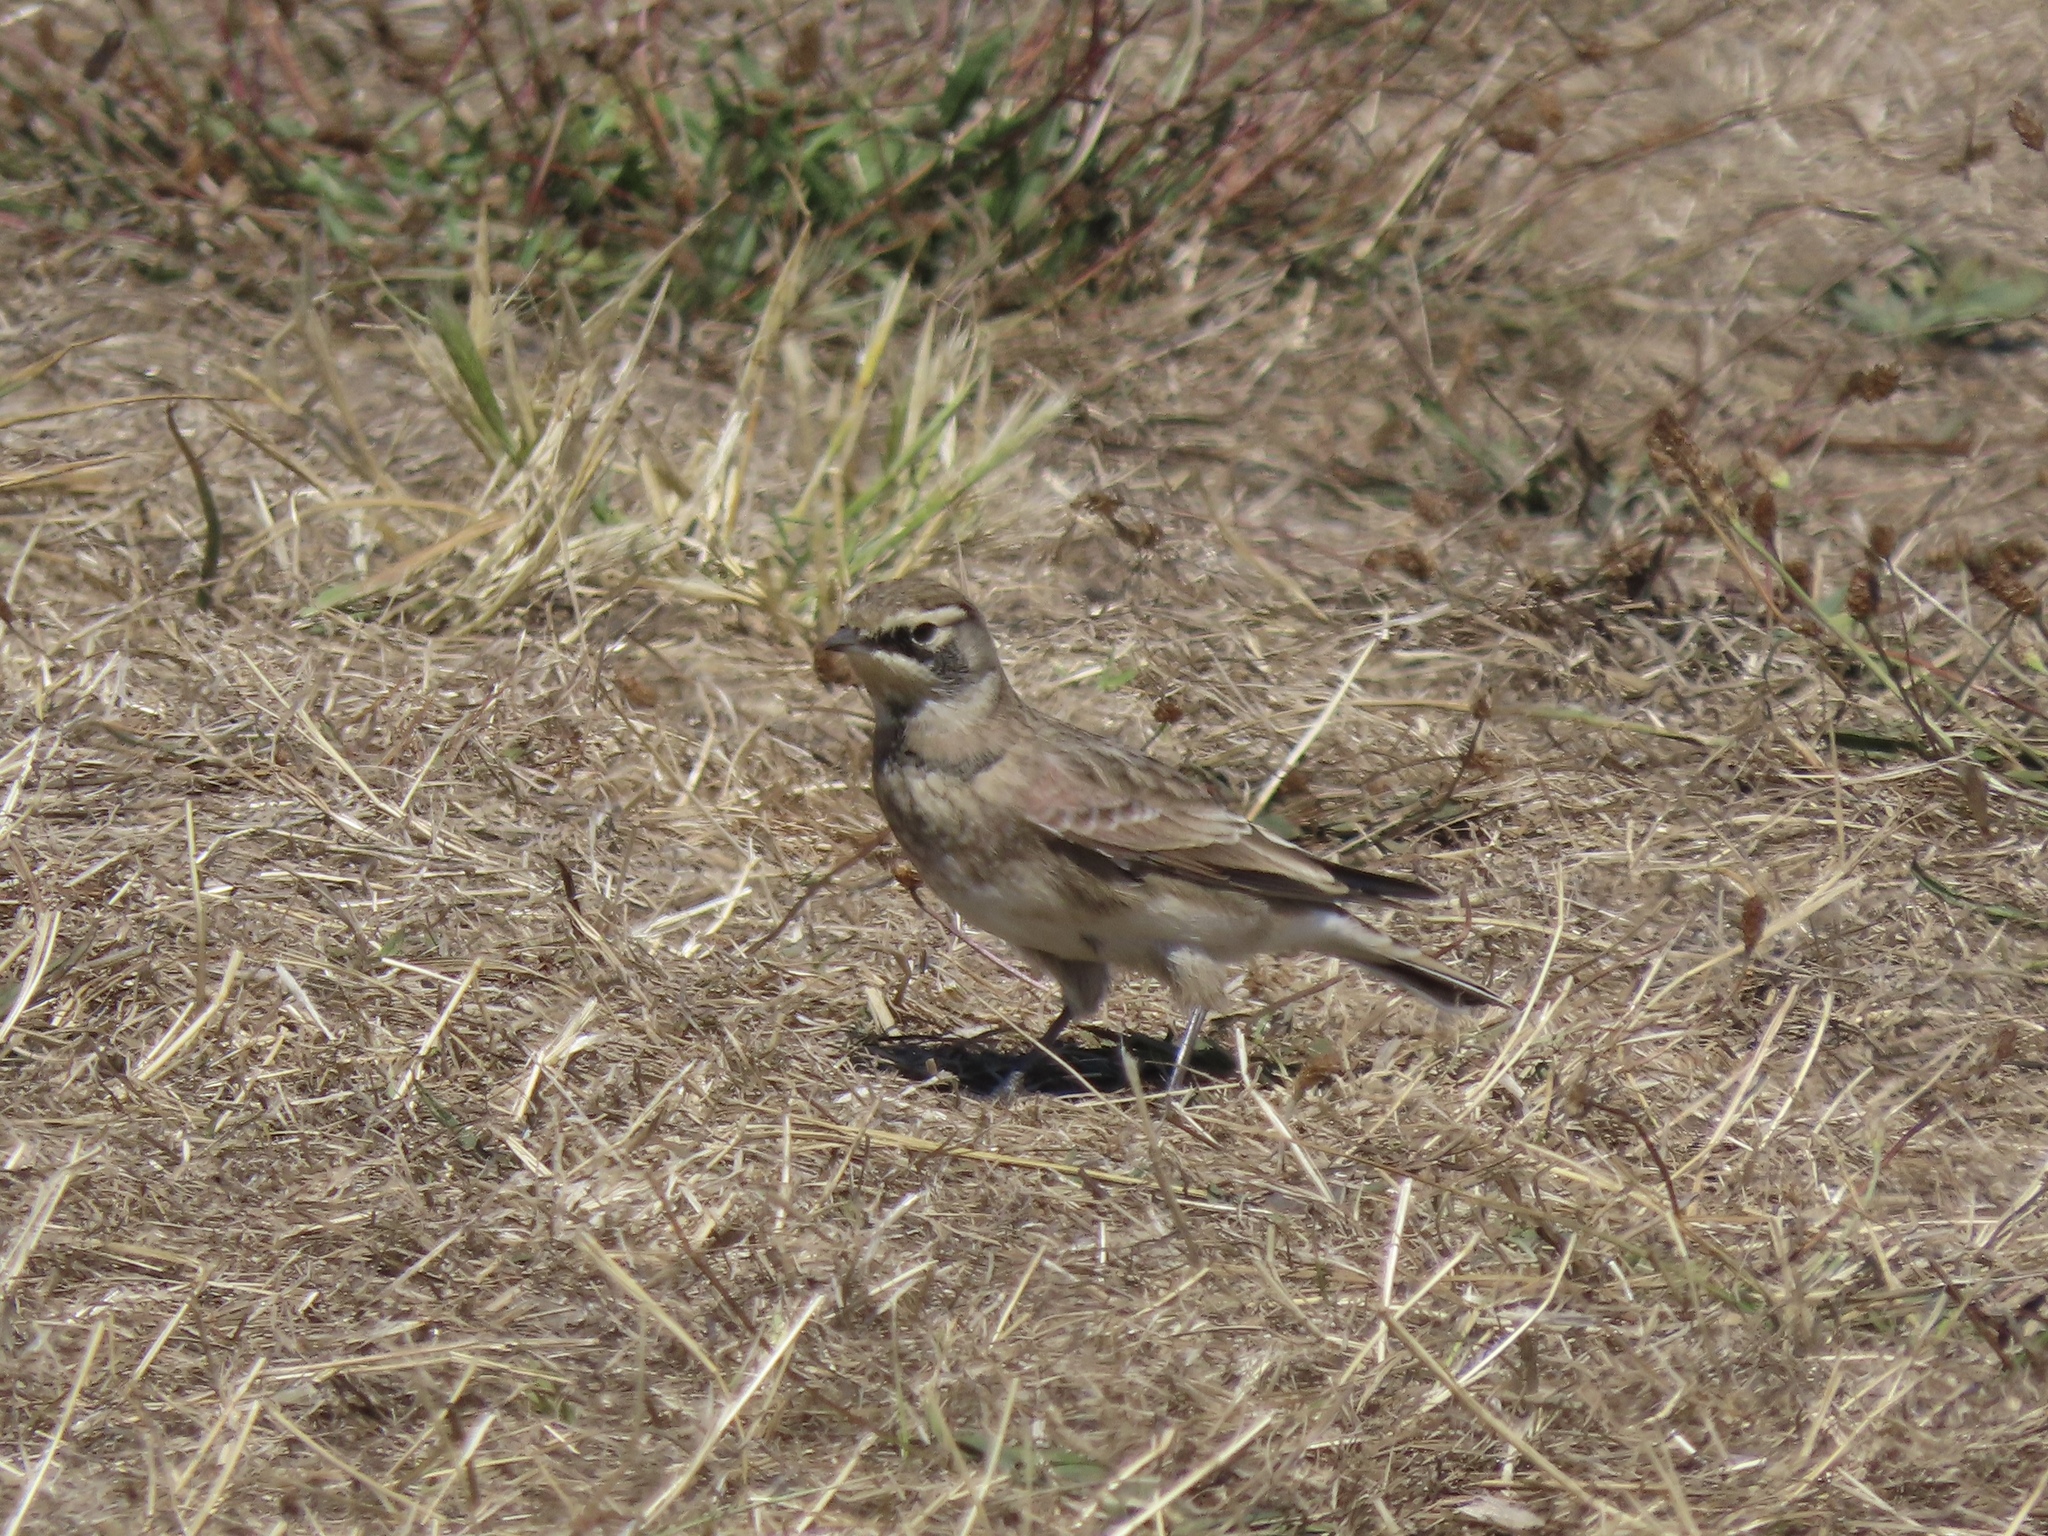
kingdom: Animalia
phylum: Chordata
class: Aves
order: Passeriformes
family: Alaudidae
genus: Eremophila
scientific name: Eremophila alpestris
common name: Horned lark
